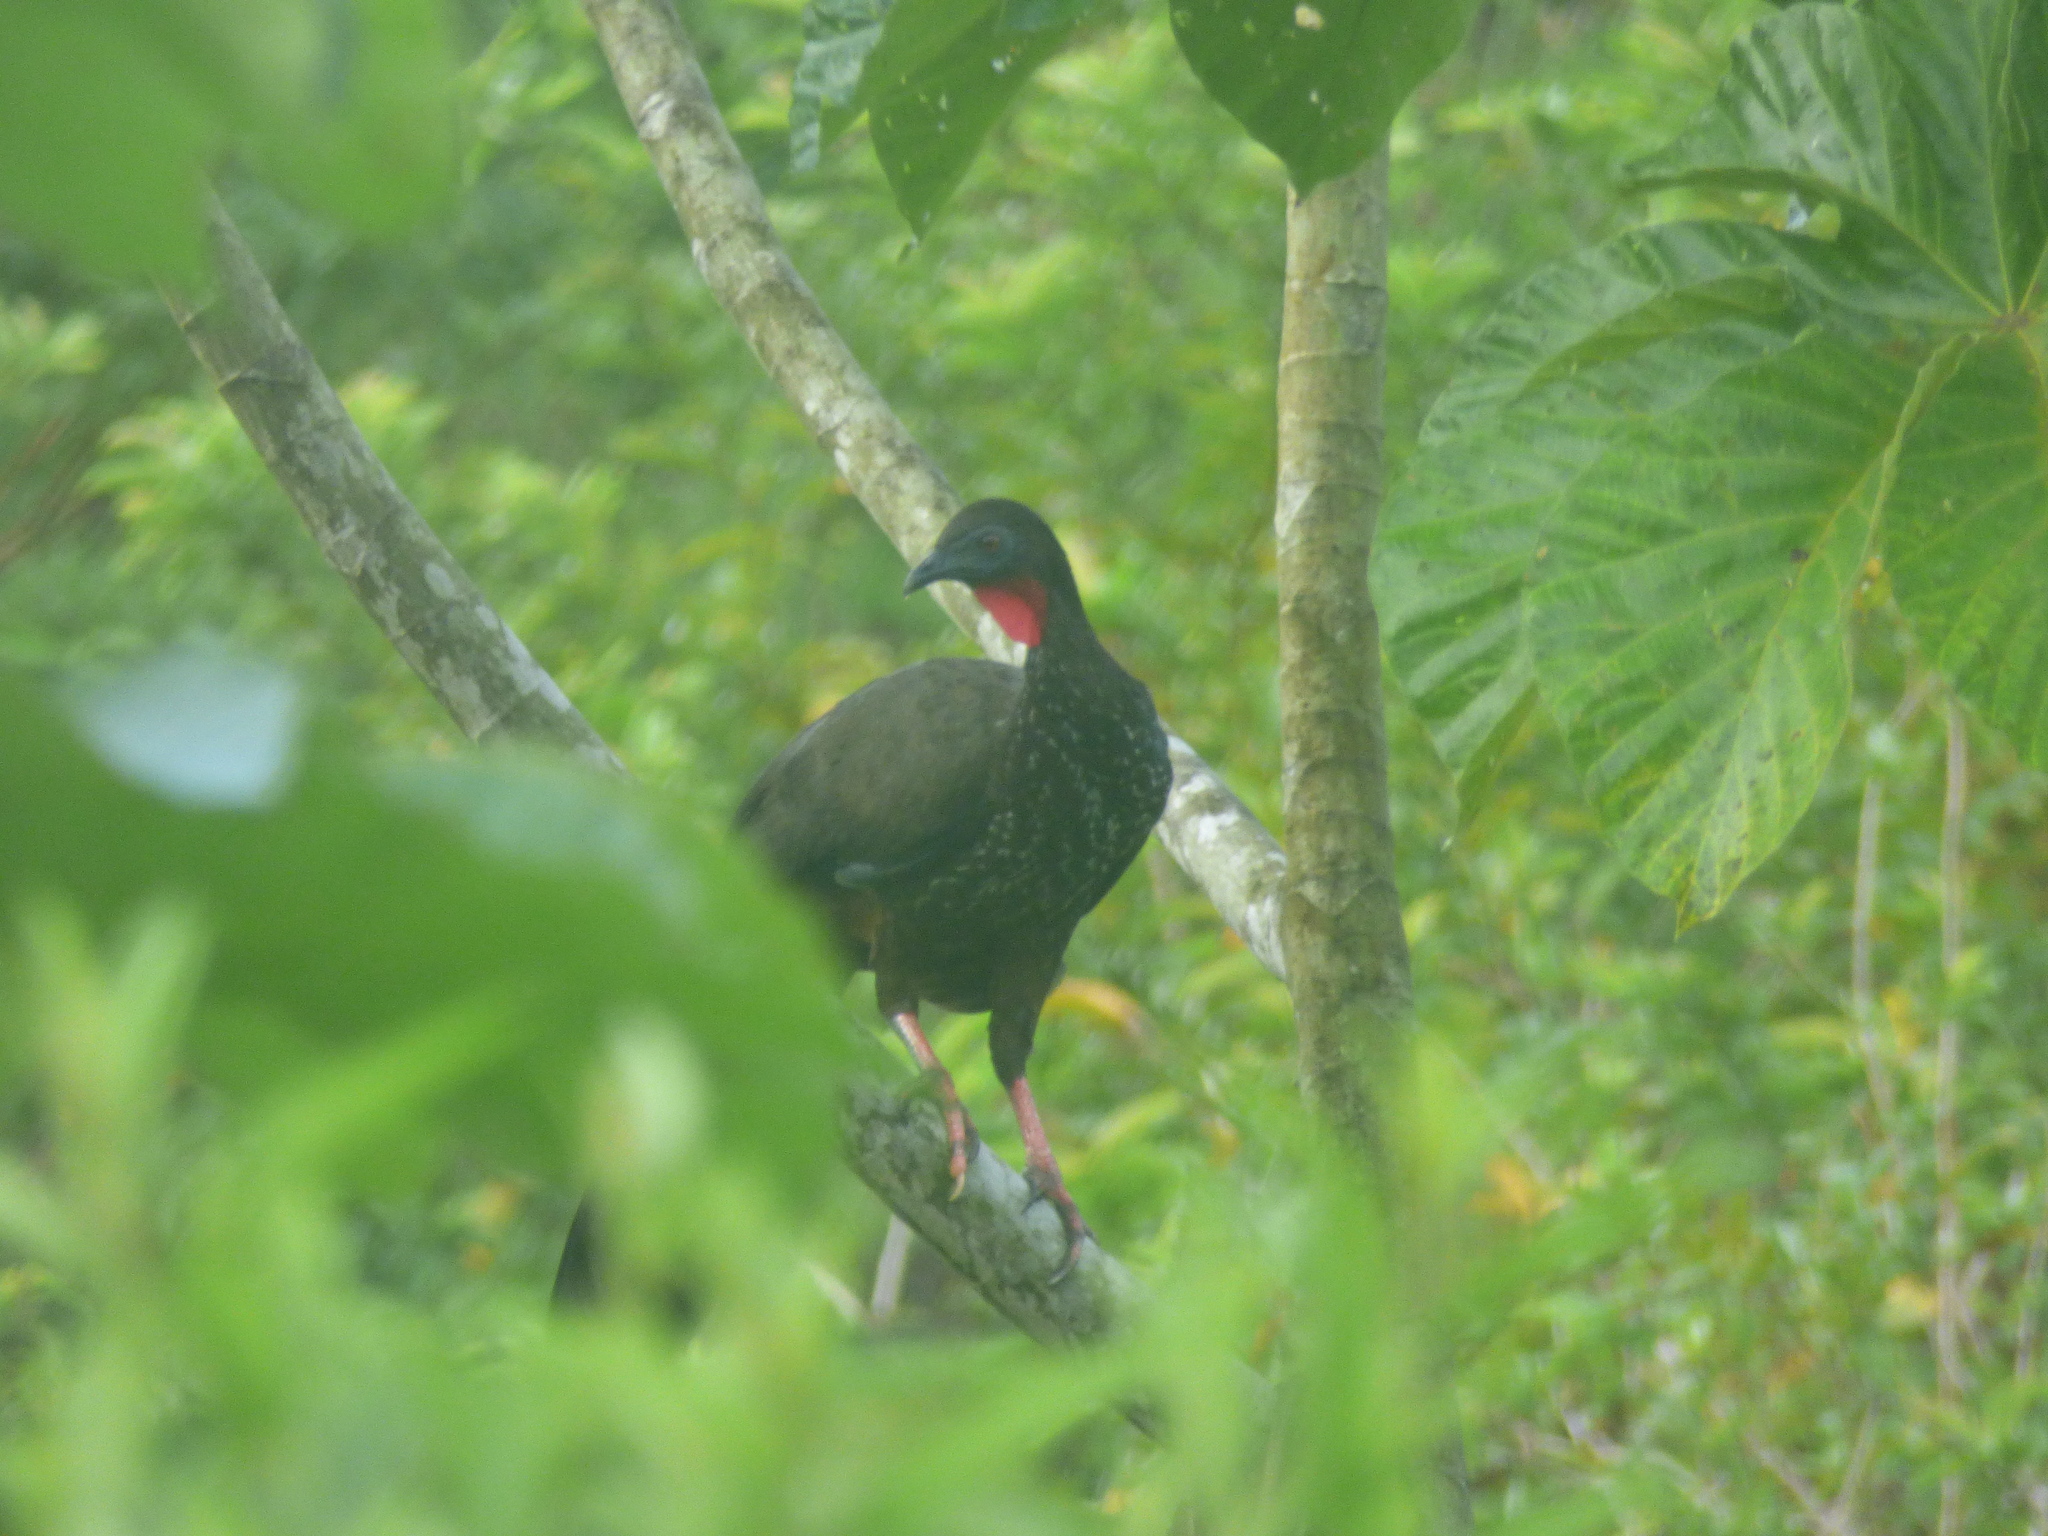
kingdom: Animalia
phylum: Chordata
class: Aves
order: Galliformes
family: Cracidae
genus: Penelope
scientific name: Penelope purpurascens
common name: Crested guan
